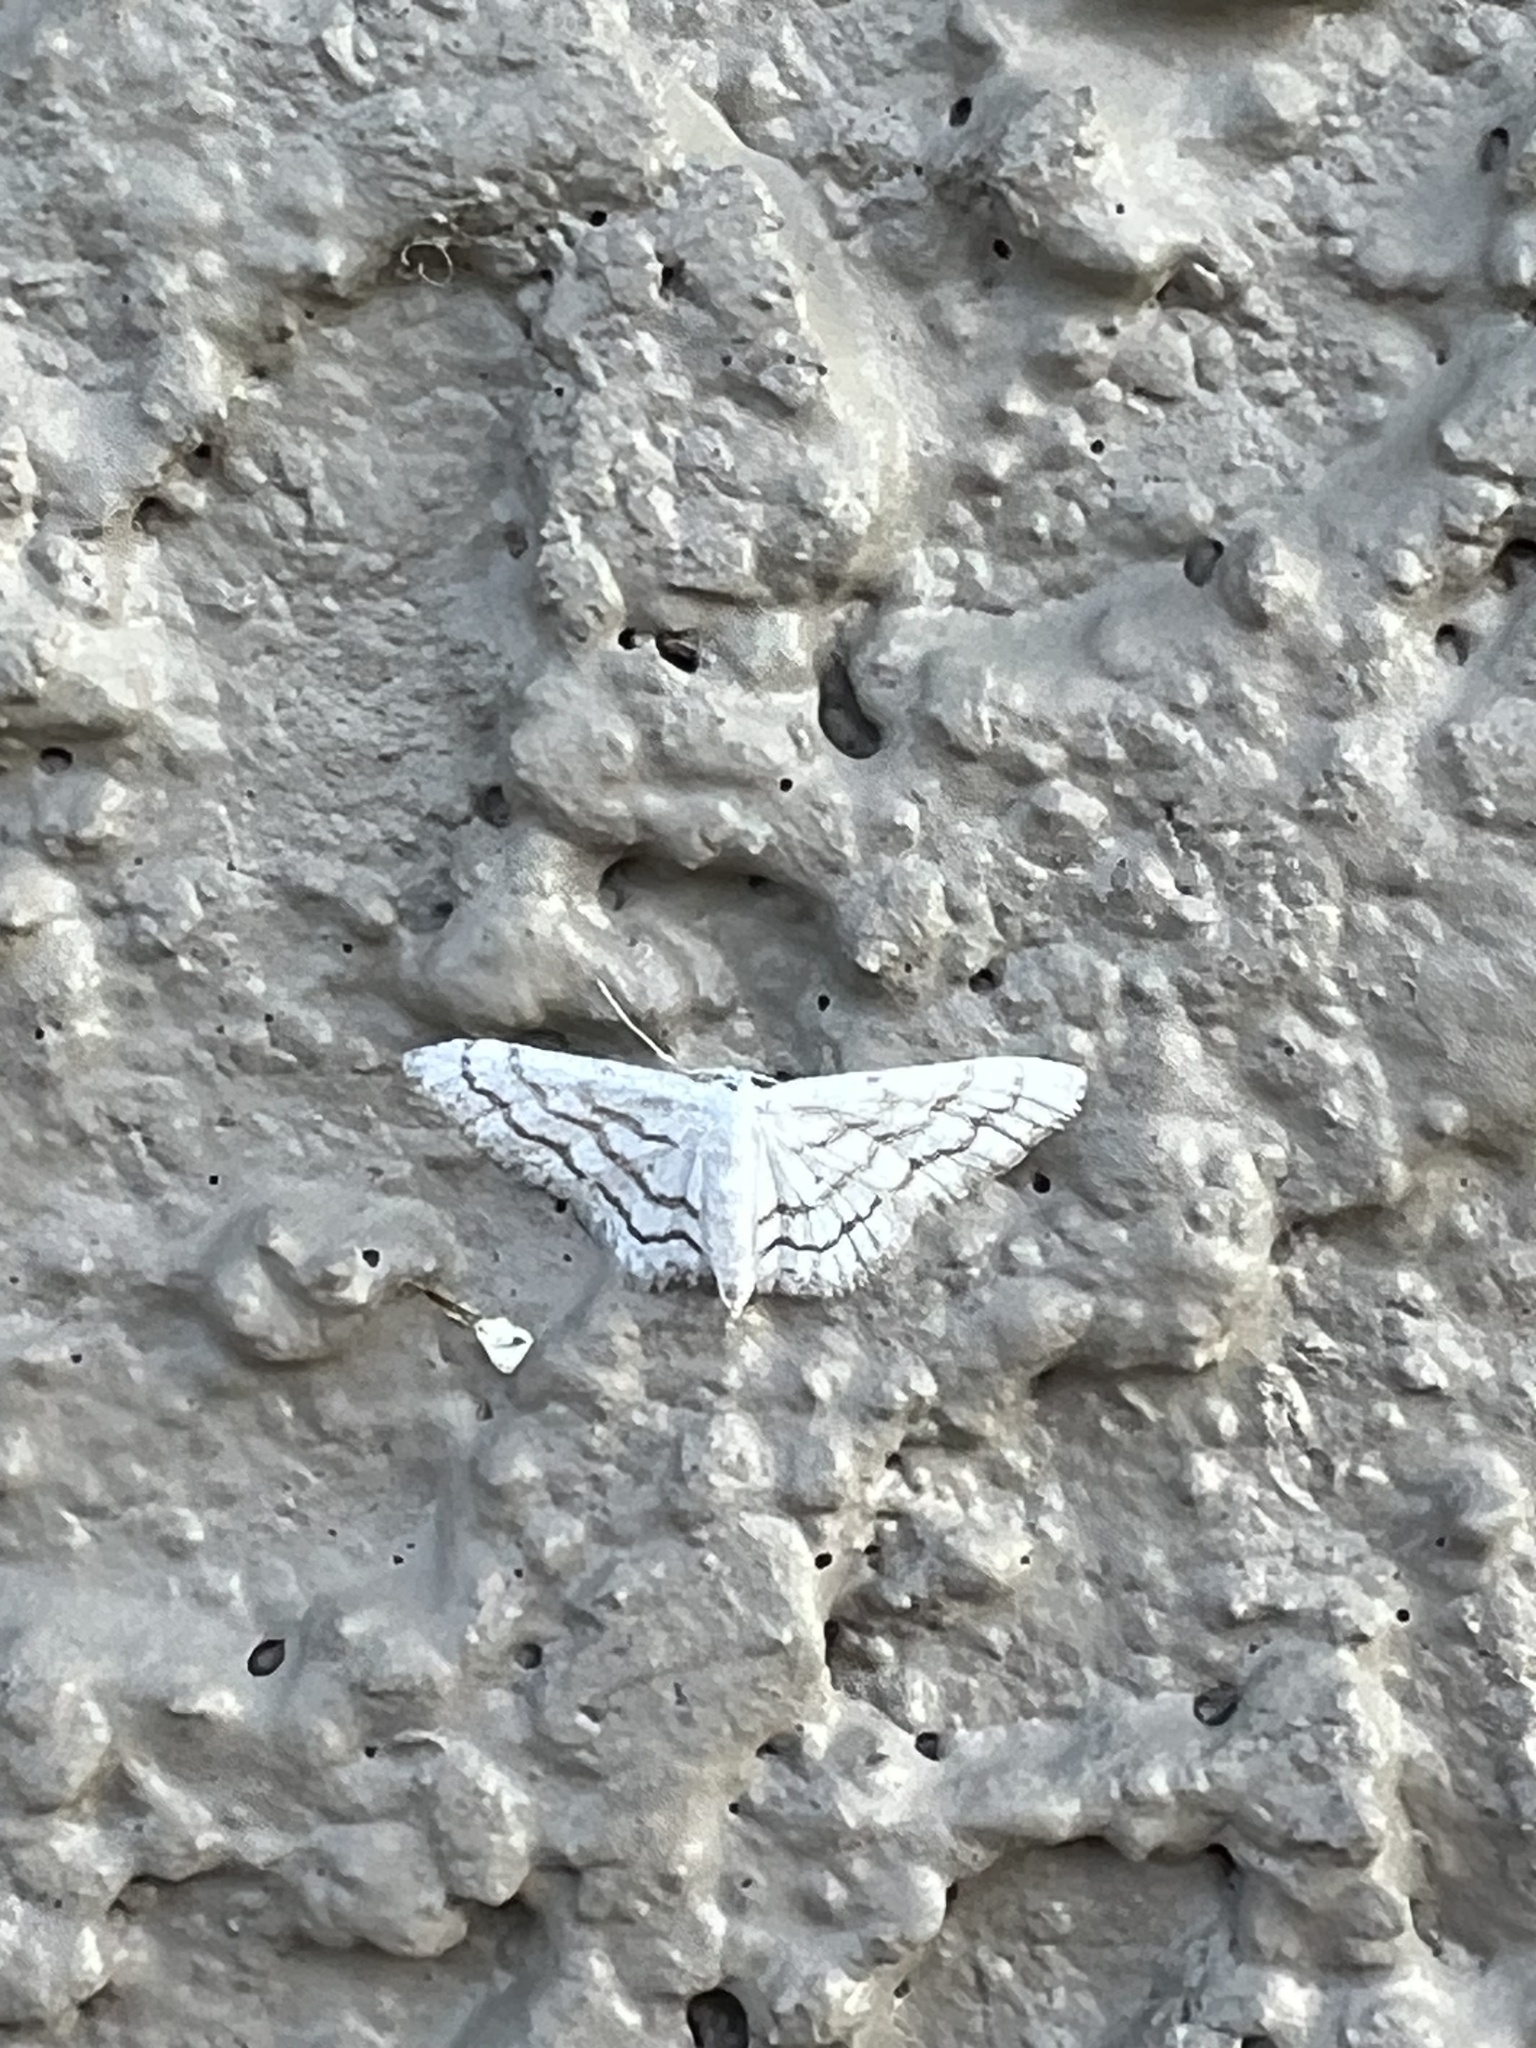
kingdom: Animalia
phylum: Arthropoda
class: Insecta
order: Lepidoptera
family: Geometridae
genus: Lobocleta
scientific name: Lobocleta peralbata
